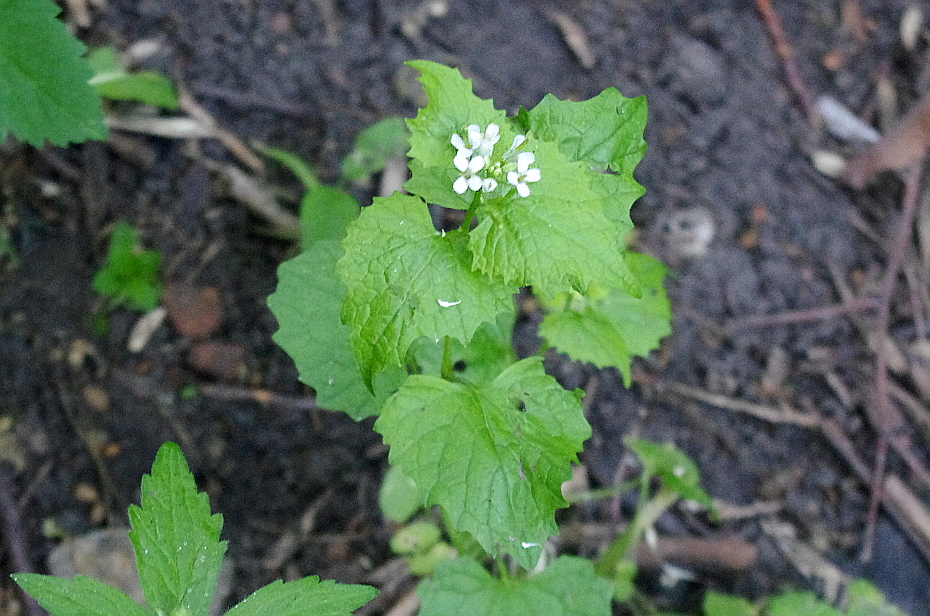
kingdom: Plantae
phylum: Tracheophyta
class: Magnoliopsida
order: Brassicales
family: Brassicaceae
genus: Alliaria
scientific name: Alliaria petiolata
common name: Garlic mustard
